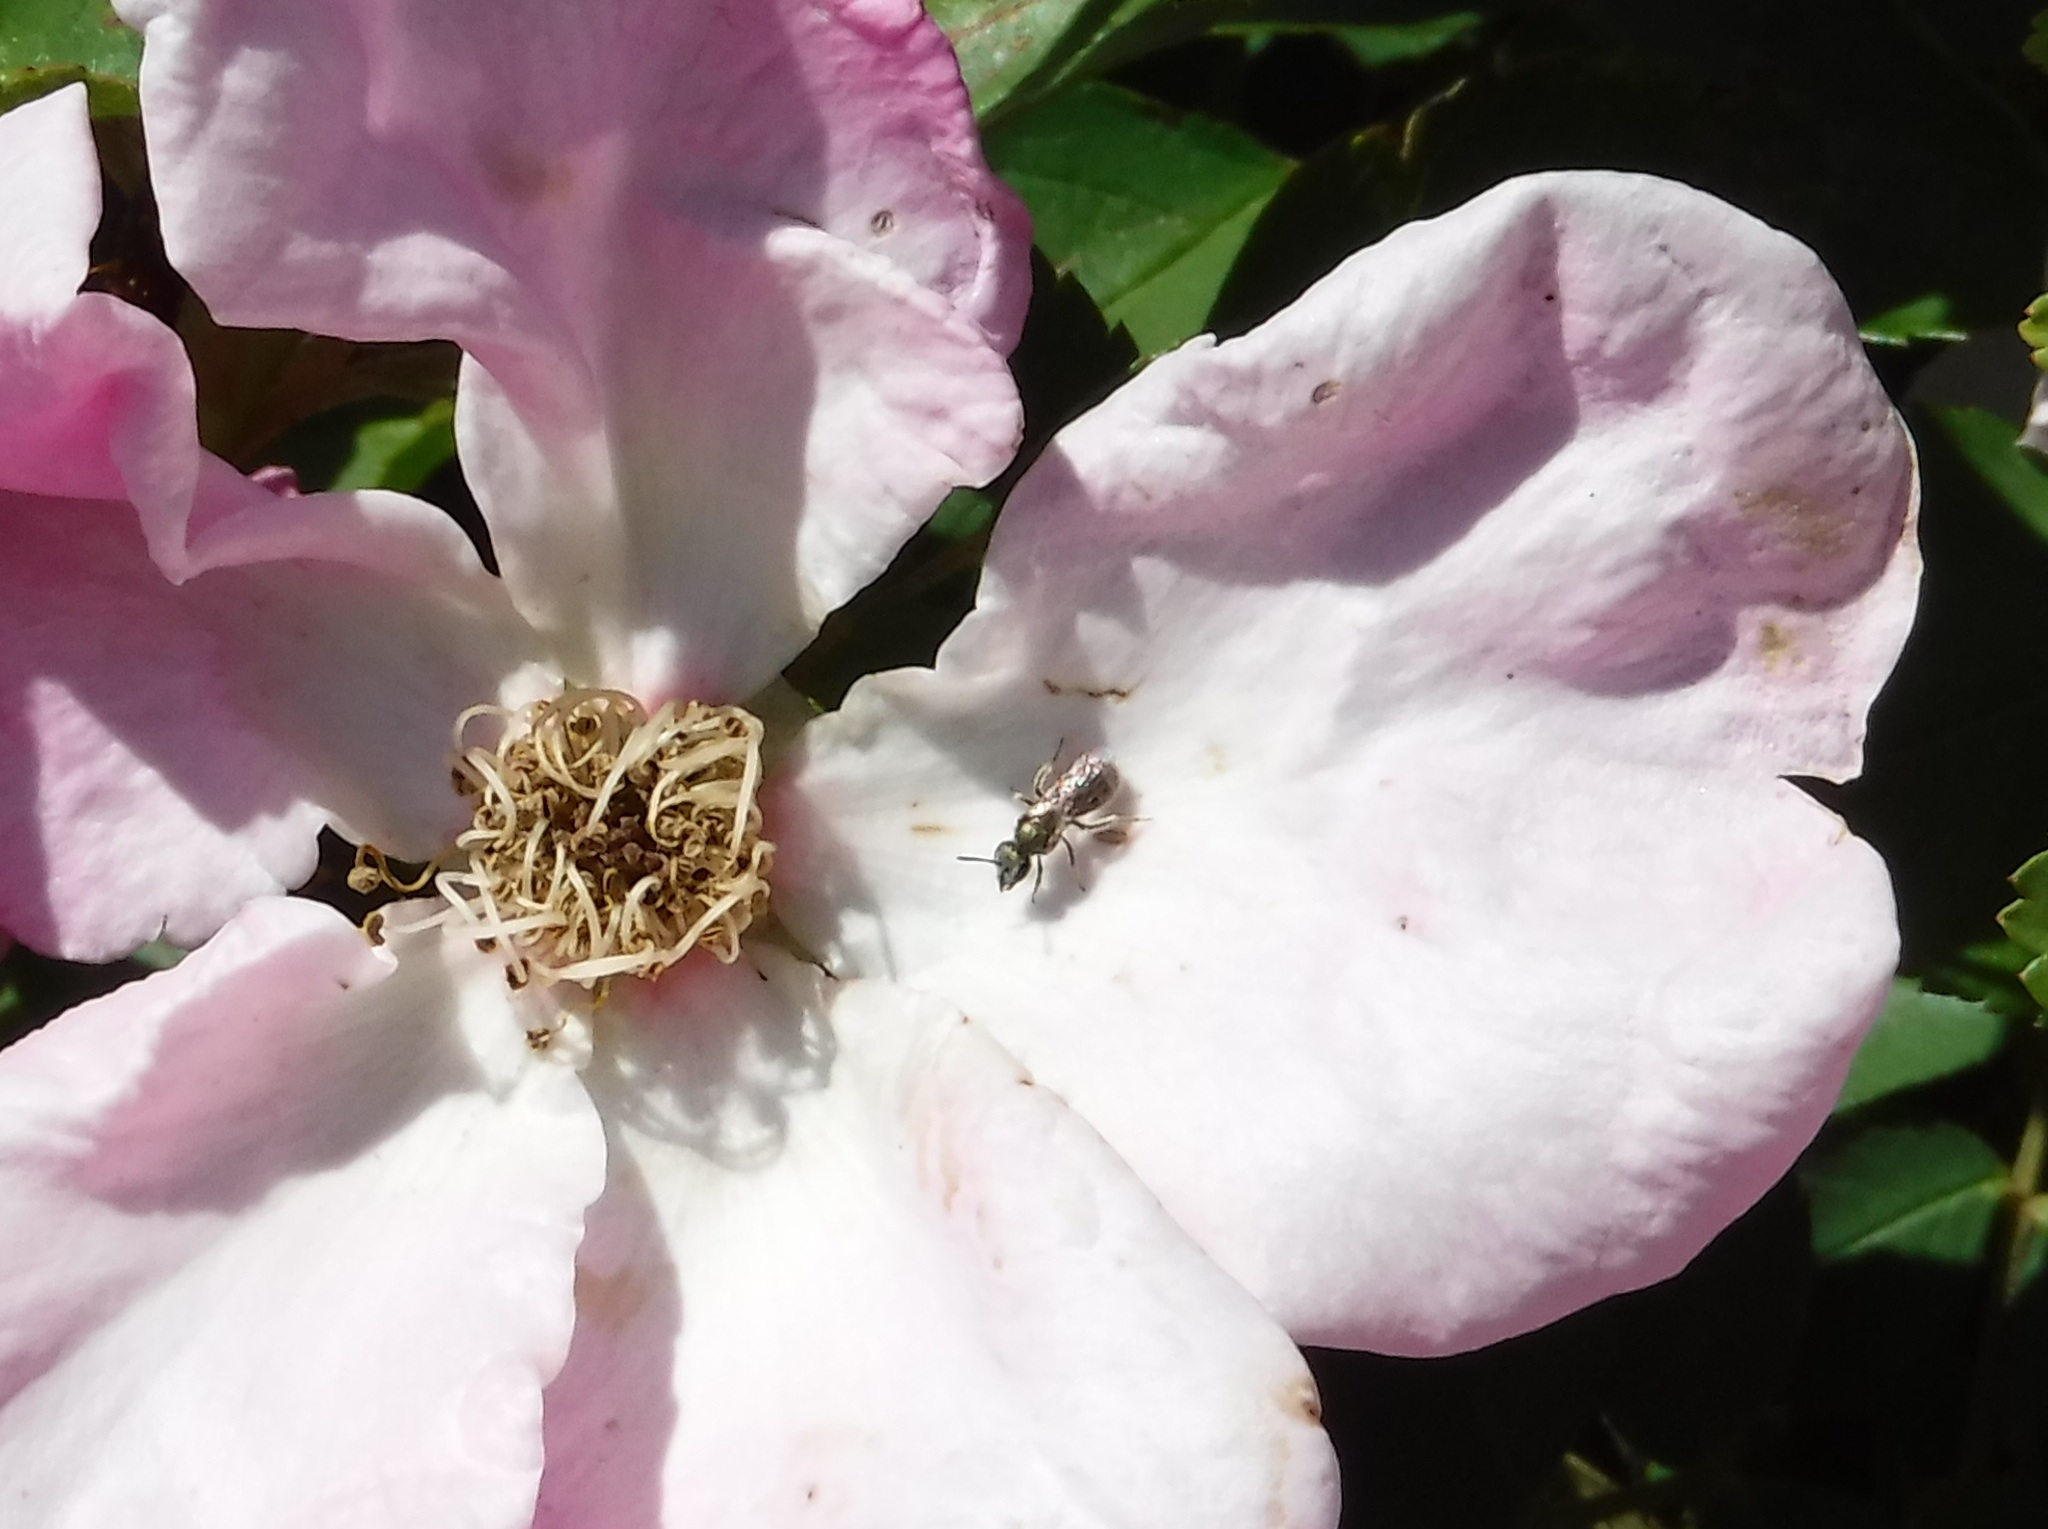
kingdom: Animalia
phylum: Arthropoda
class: Insecta
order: Hymenoptera
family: Halictidae
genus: Dialictus
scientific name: Dialictus
